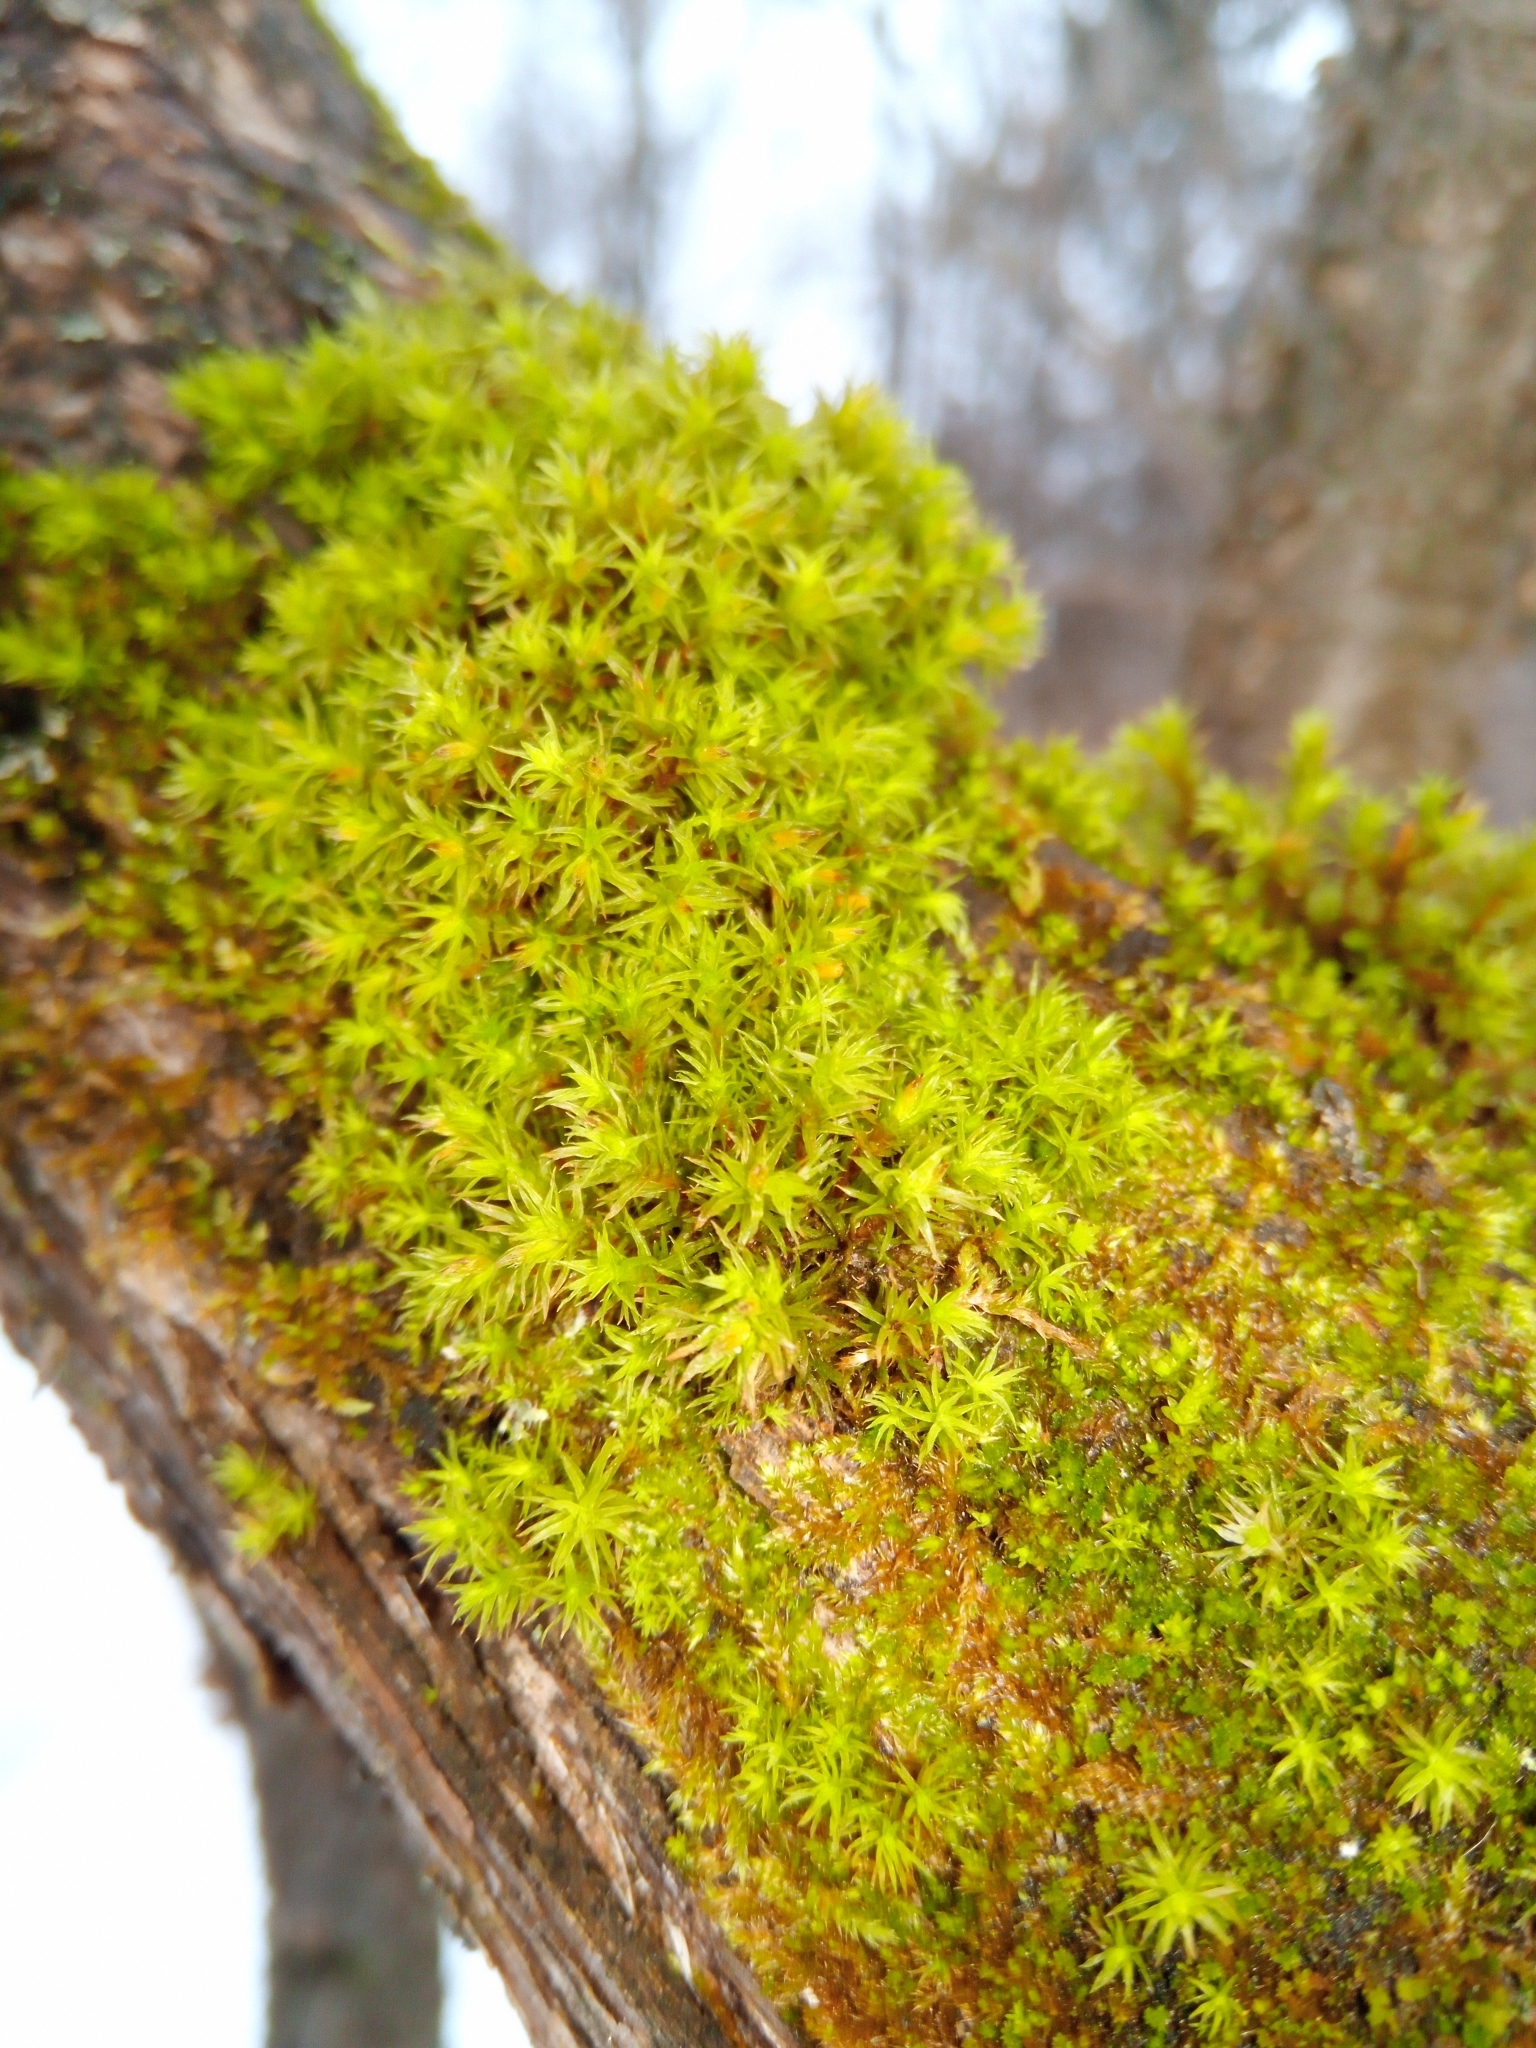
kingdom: Plantae
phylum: Bryophyta
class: Bryopsida
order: Orthotrichales
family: Orthotrichaceae
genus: Lewinskya
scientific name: Lewinskya speciosa
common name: Showy bristle moss
